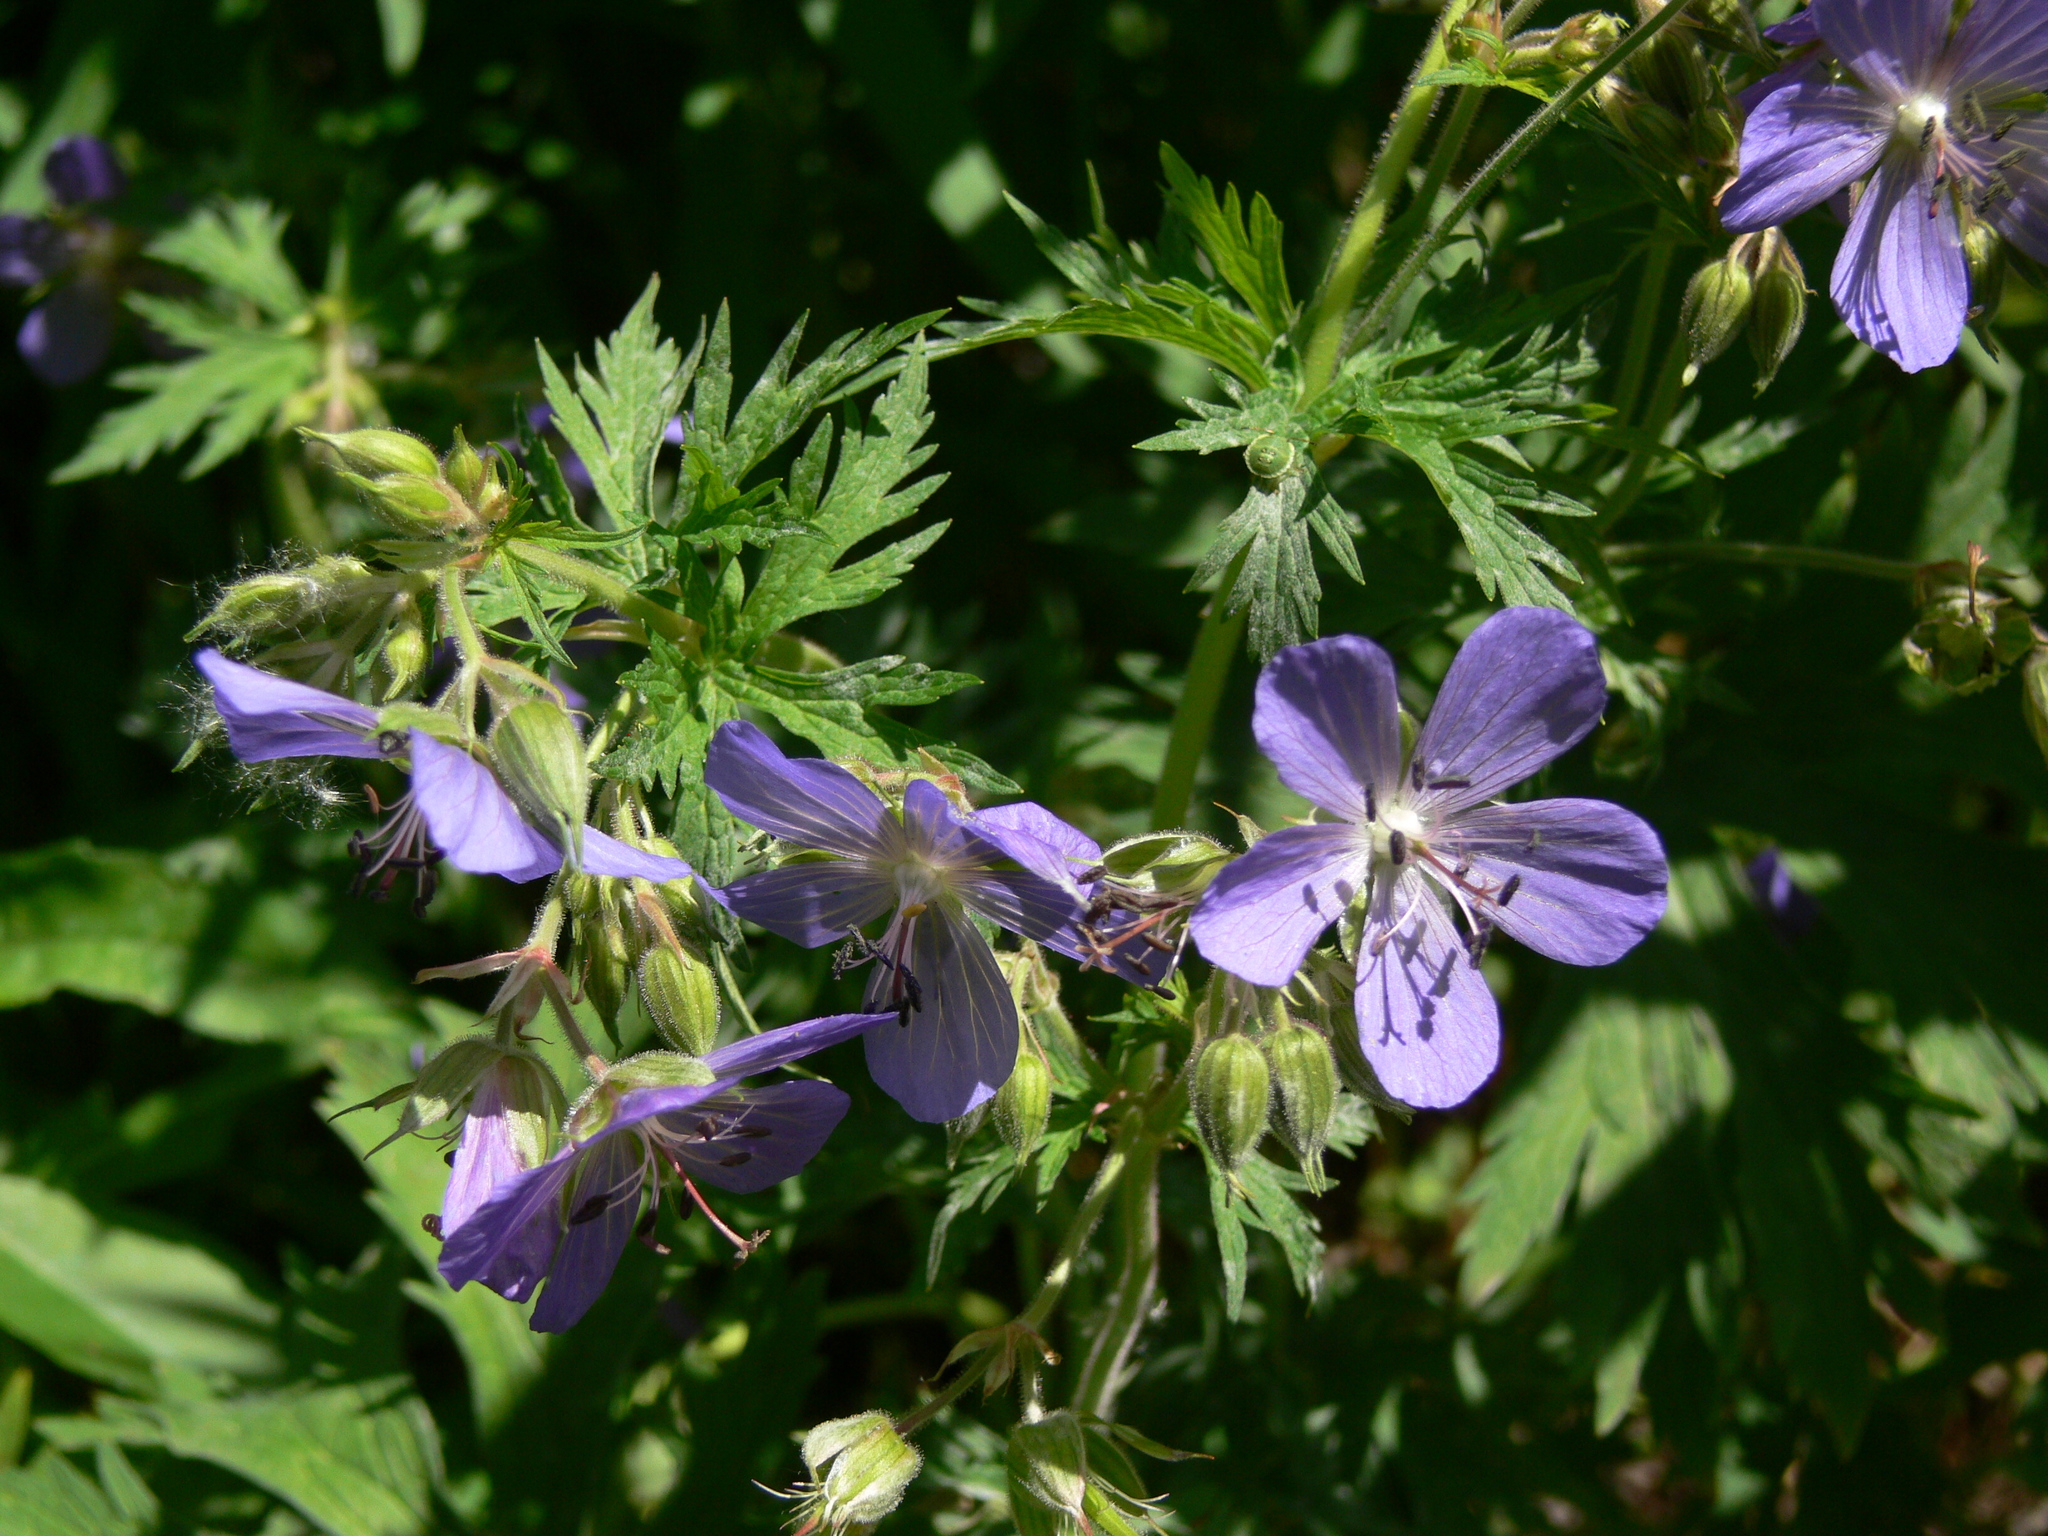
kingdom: Plantae
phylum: Tracheophyta
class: Magnoliopsida
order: Geraniales
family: Geraniaceae
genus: Geranium
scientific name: Geranium pratense
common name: Meadow crane's-bill
